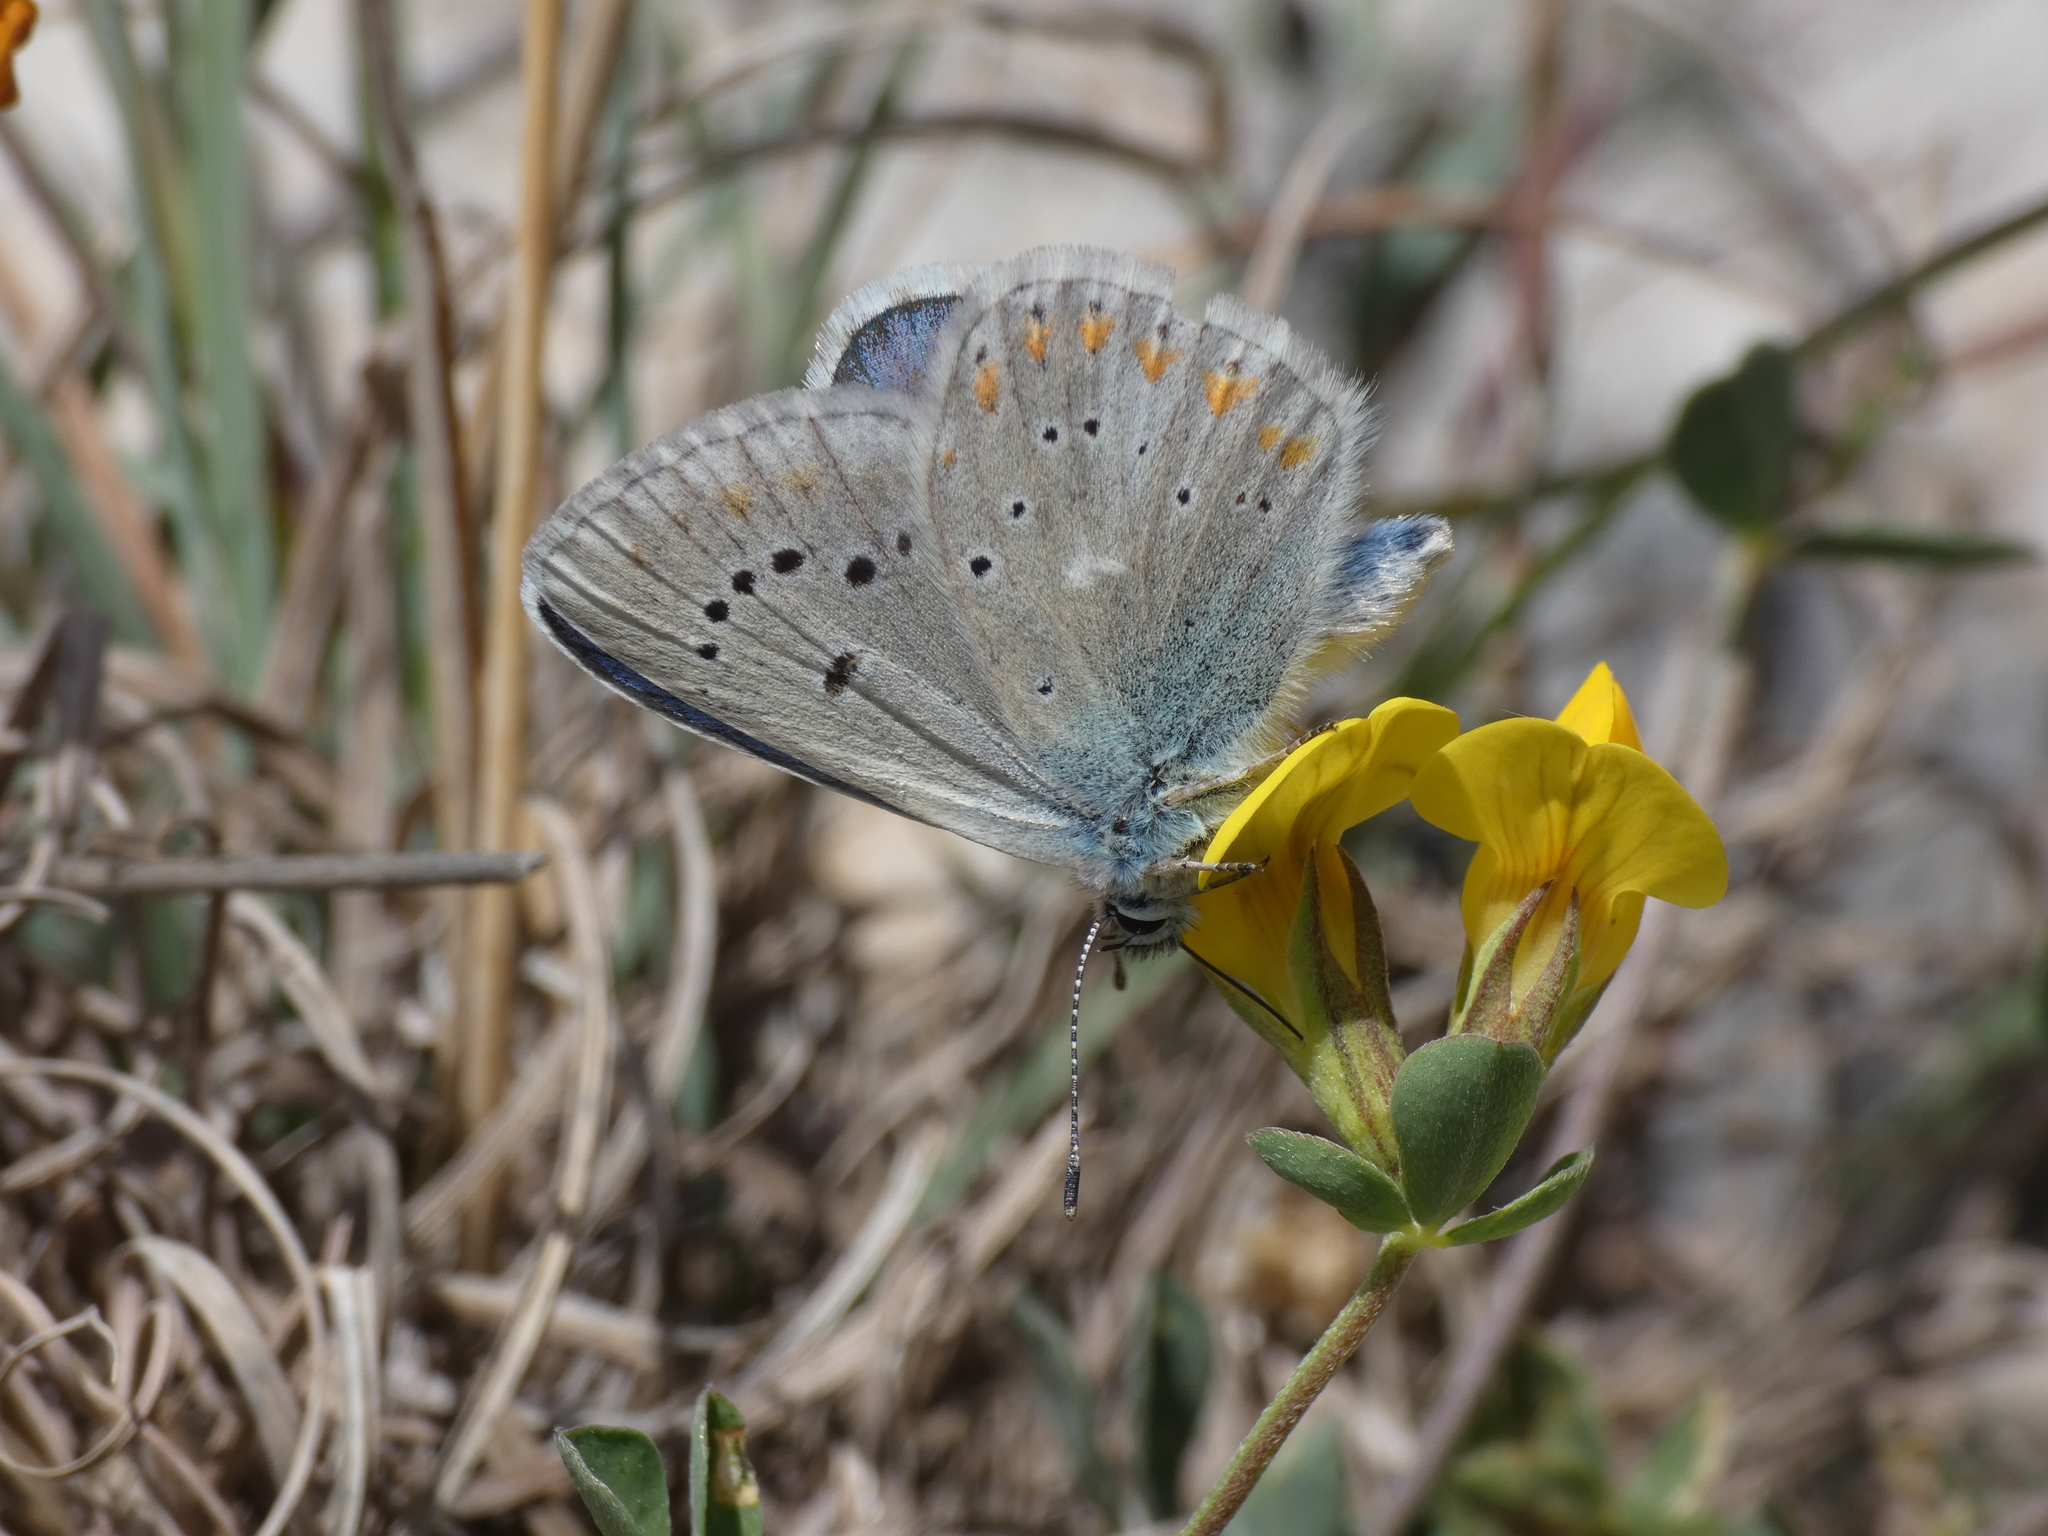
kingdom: Animalia
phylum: Arthropoda
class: Insecta
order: Lepidoptera
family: Lycaenidae
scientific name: Lycaenidae
